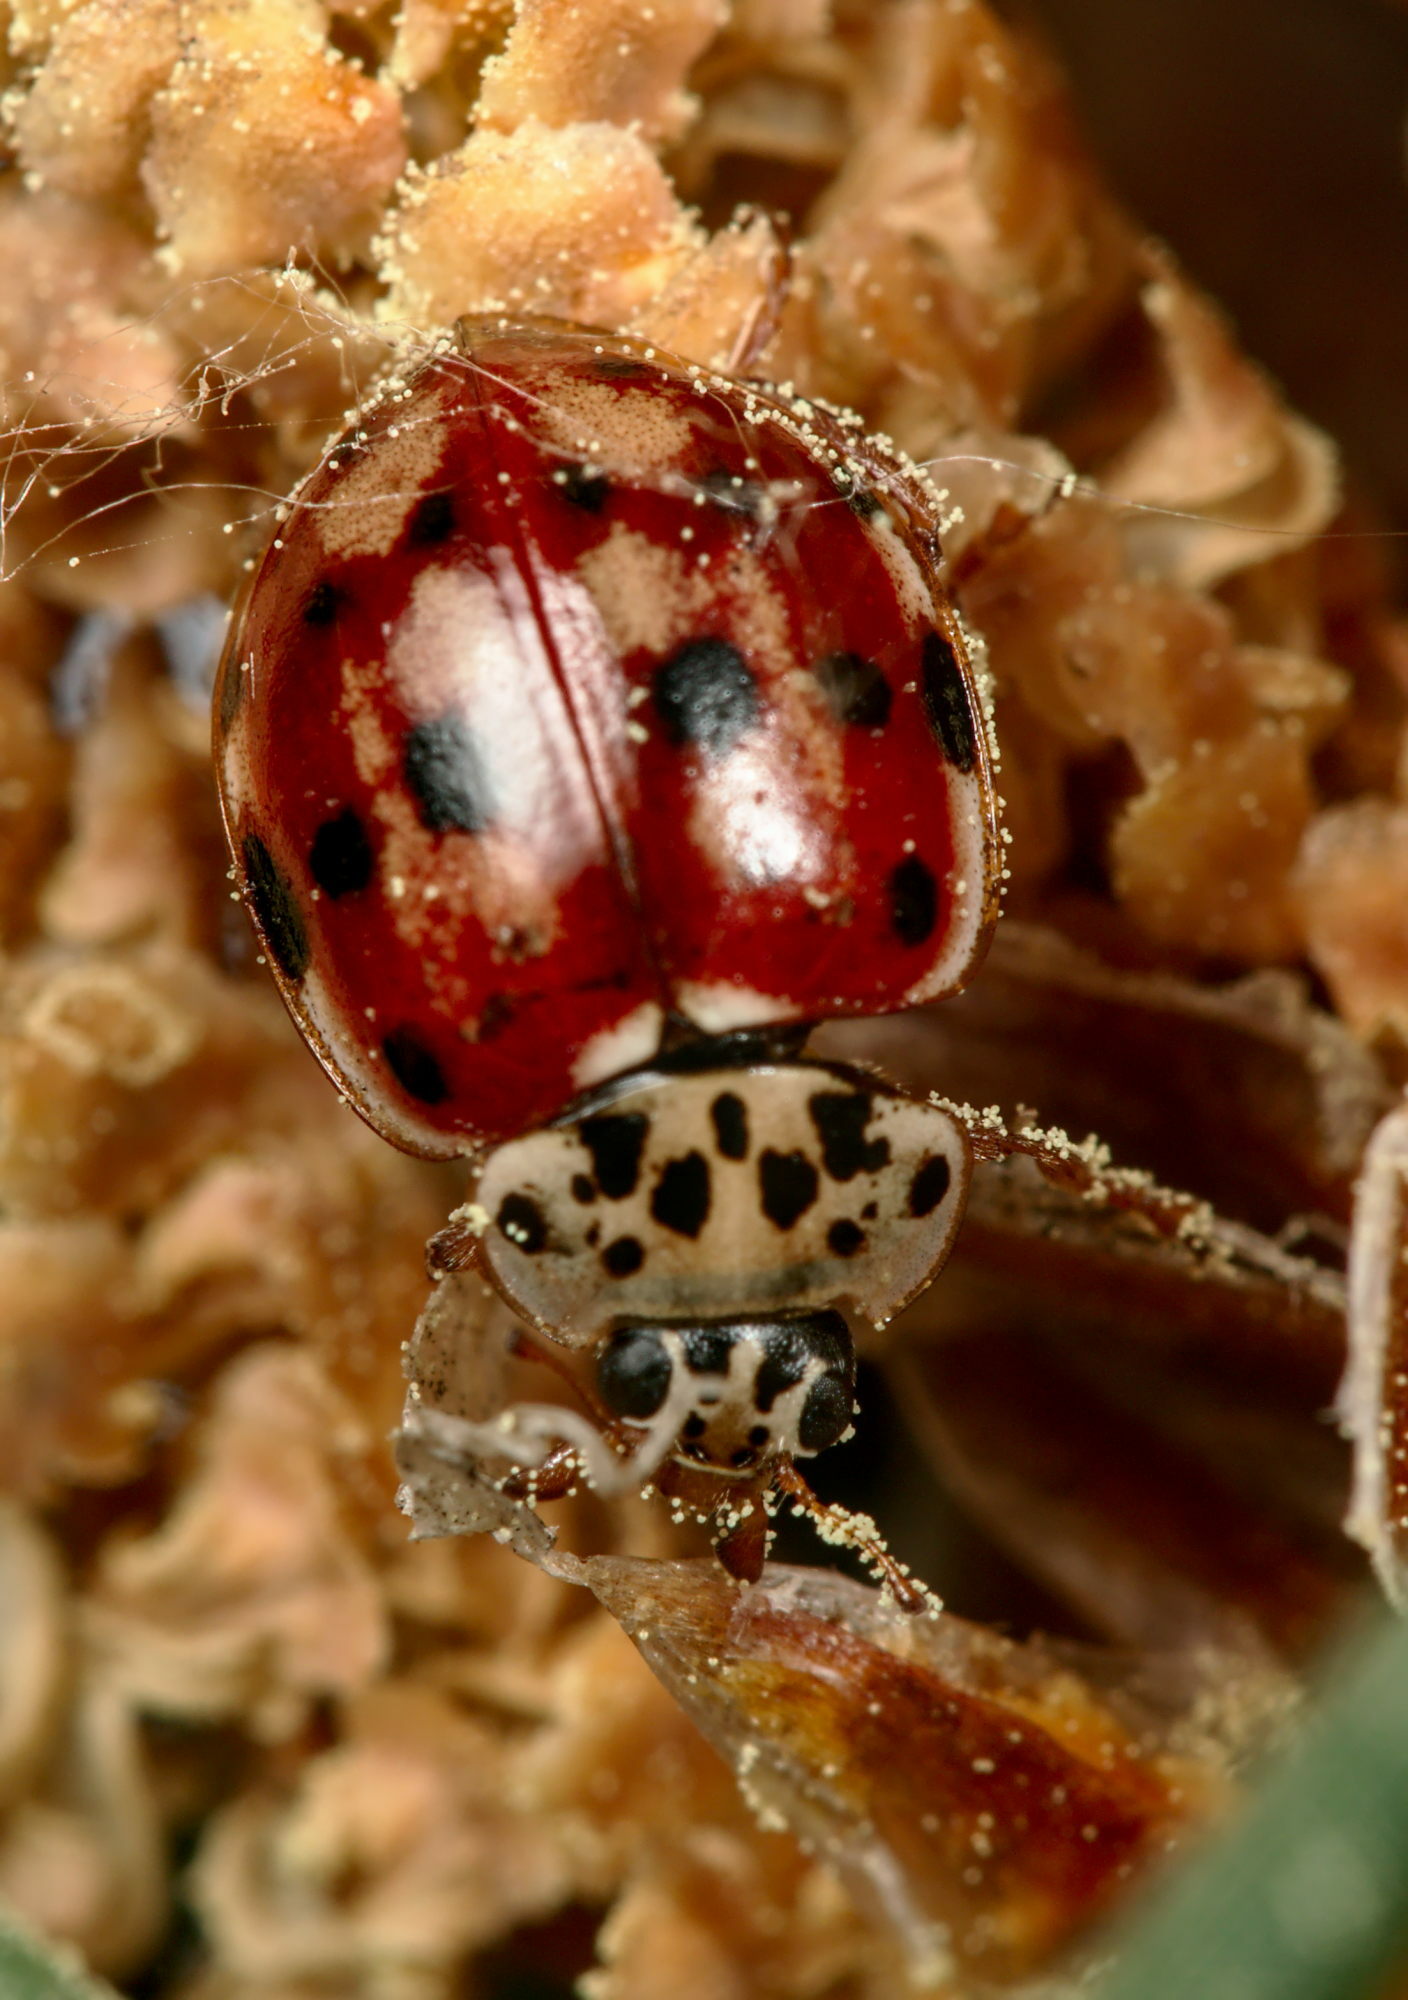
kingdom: Animalia
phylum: Arthropoda
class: Insecta
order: Coleoptera
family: Coccinellidae
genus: Harmonia
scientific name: Harmonia quadripunctata
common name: Cream-streaked ladybird
